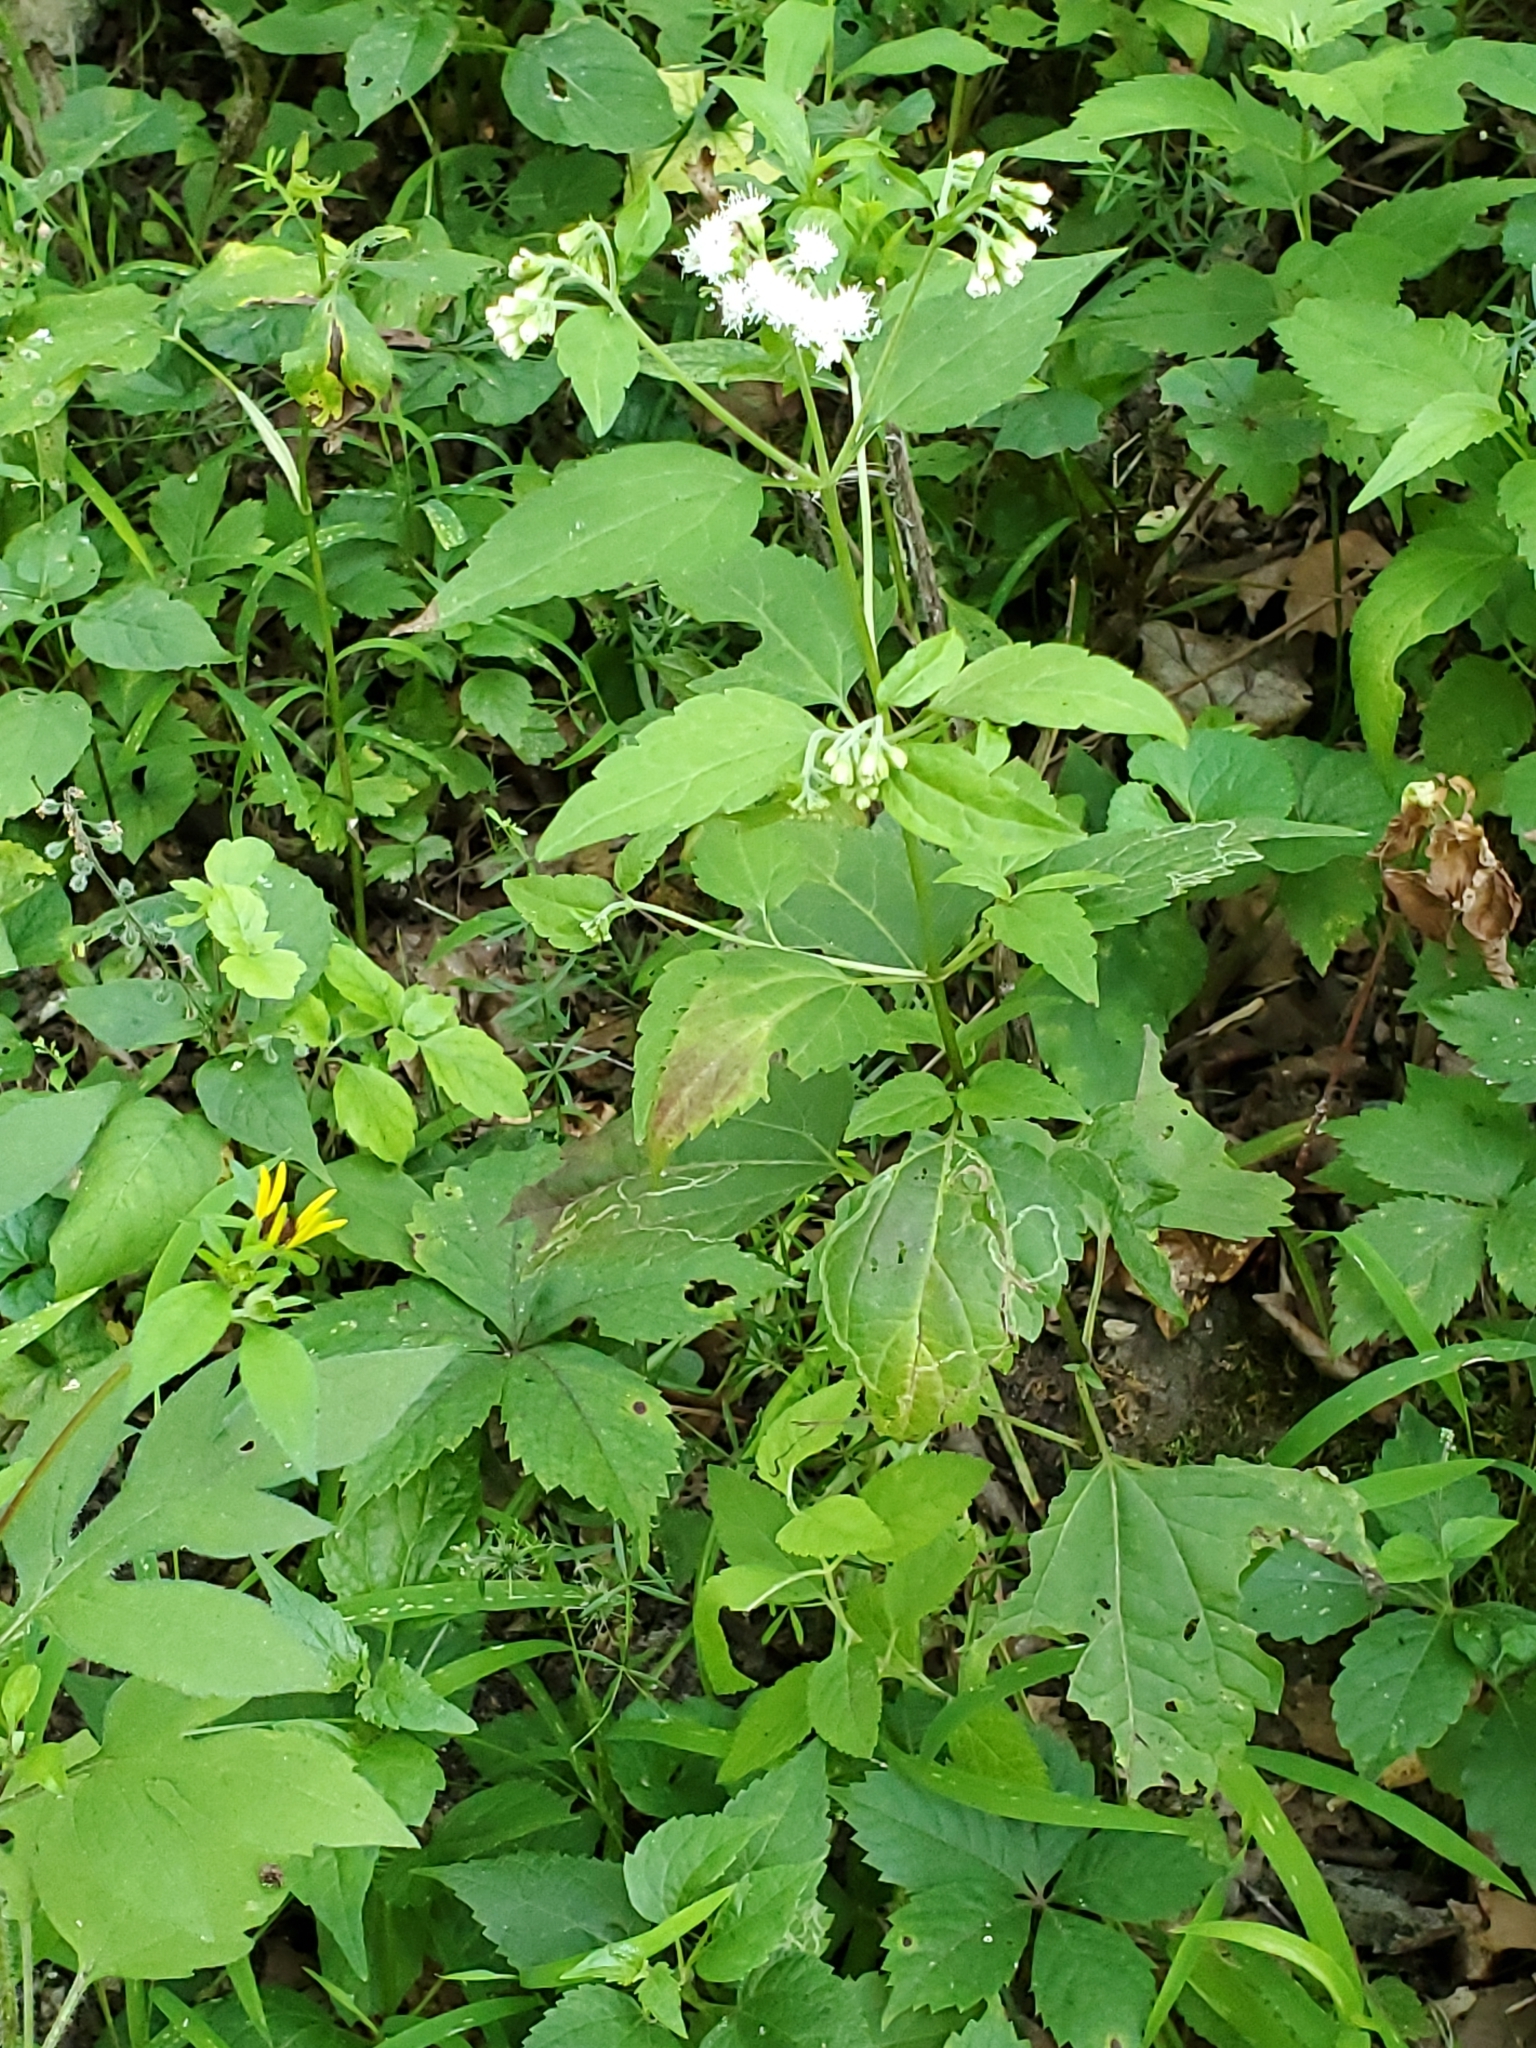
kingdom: Plantae
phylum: Tracheophyta
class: Magnoliopsida
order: Asterales
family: Asteraceae
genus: Ageratina
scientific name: Ageratina altissima
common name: White snakeroot
